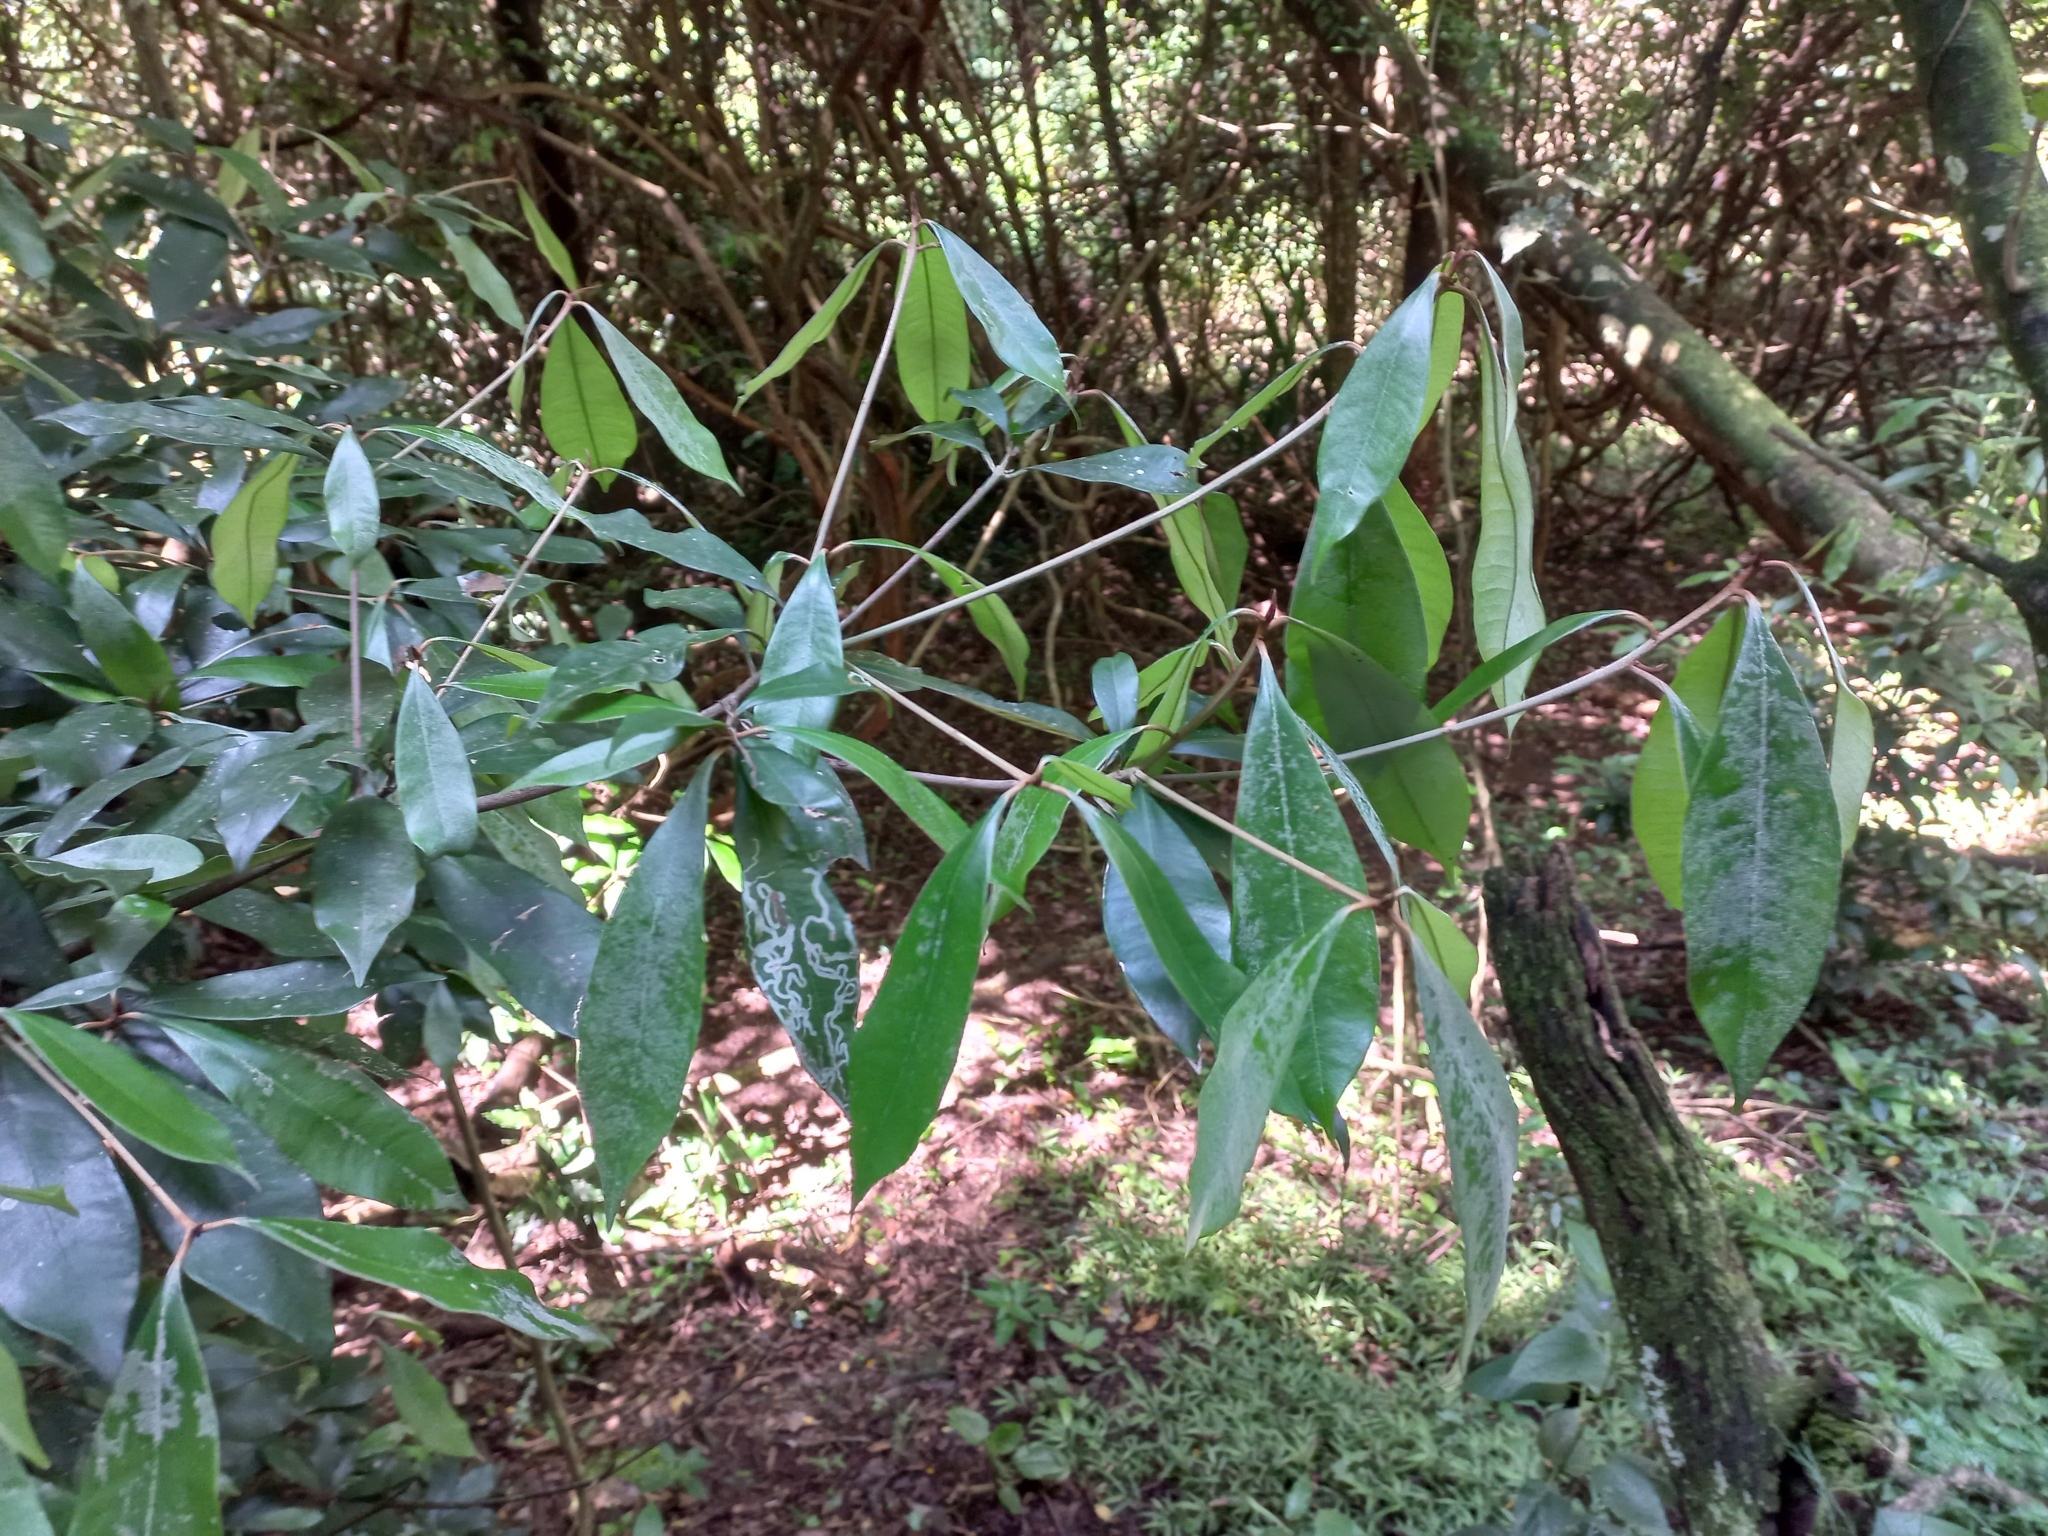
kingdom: Plantae
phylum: Tracheophyta
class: Magnoliopsida
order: Ericales
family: Sapotaceae
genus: Englerophytum
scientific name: Englerophytum natalense
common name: Silver-leaved milkplum
